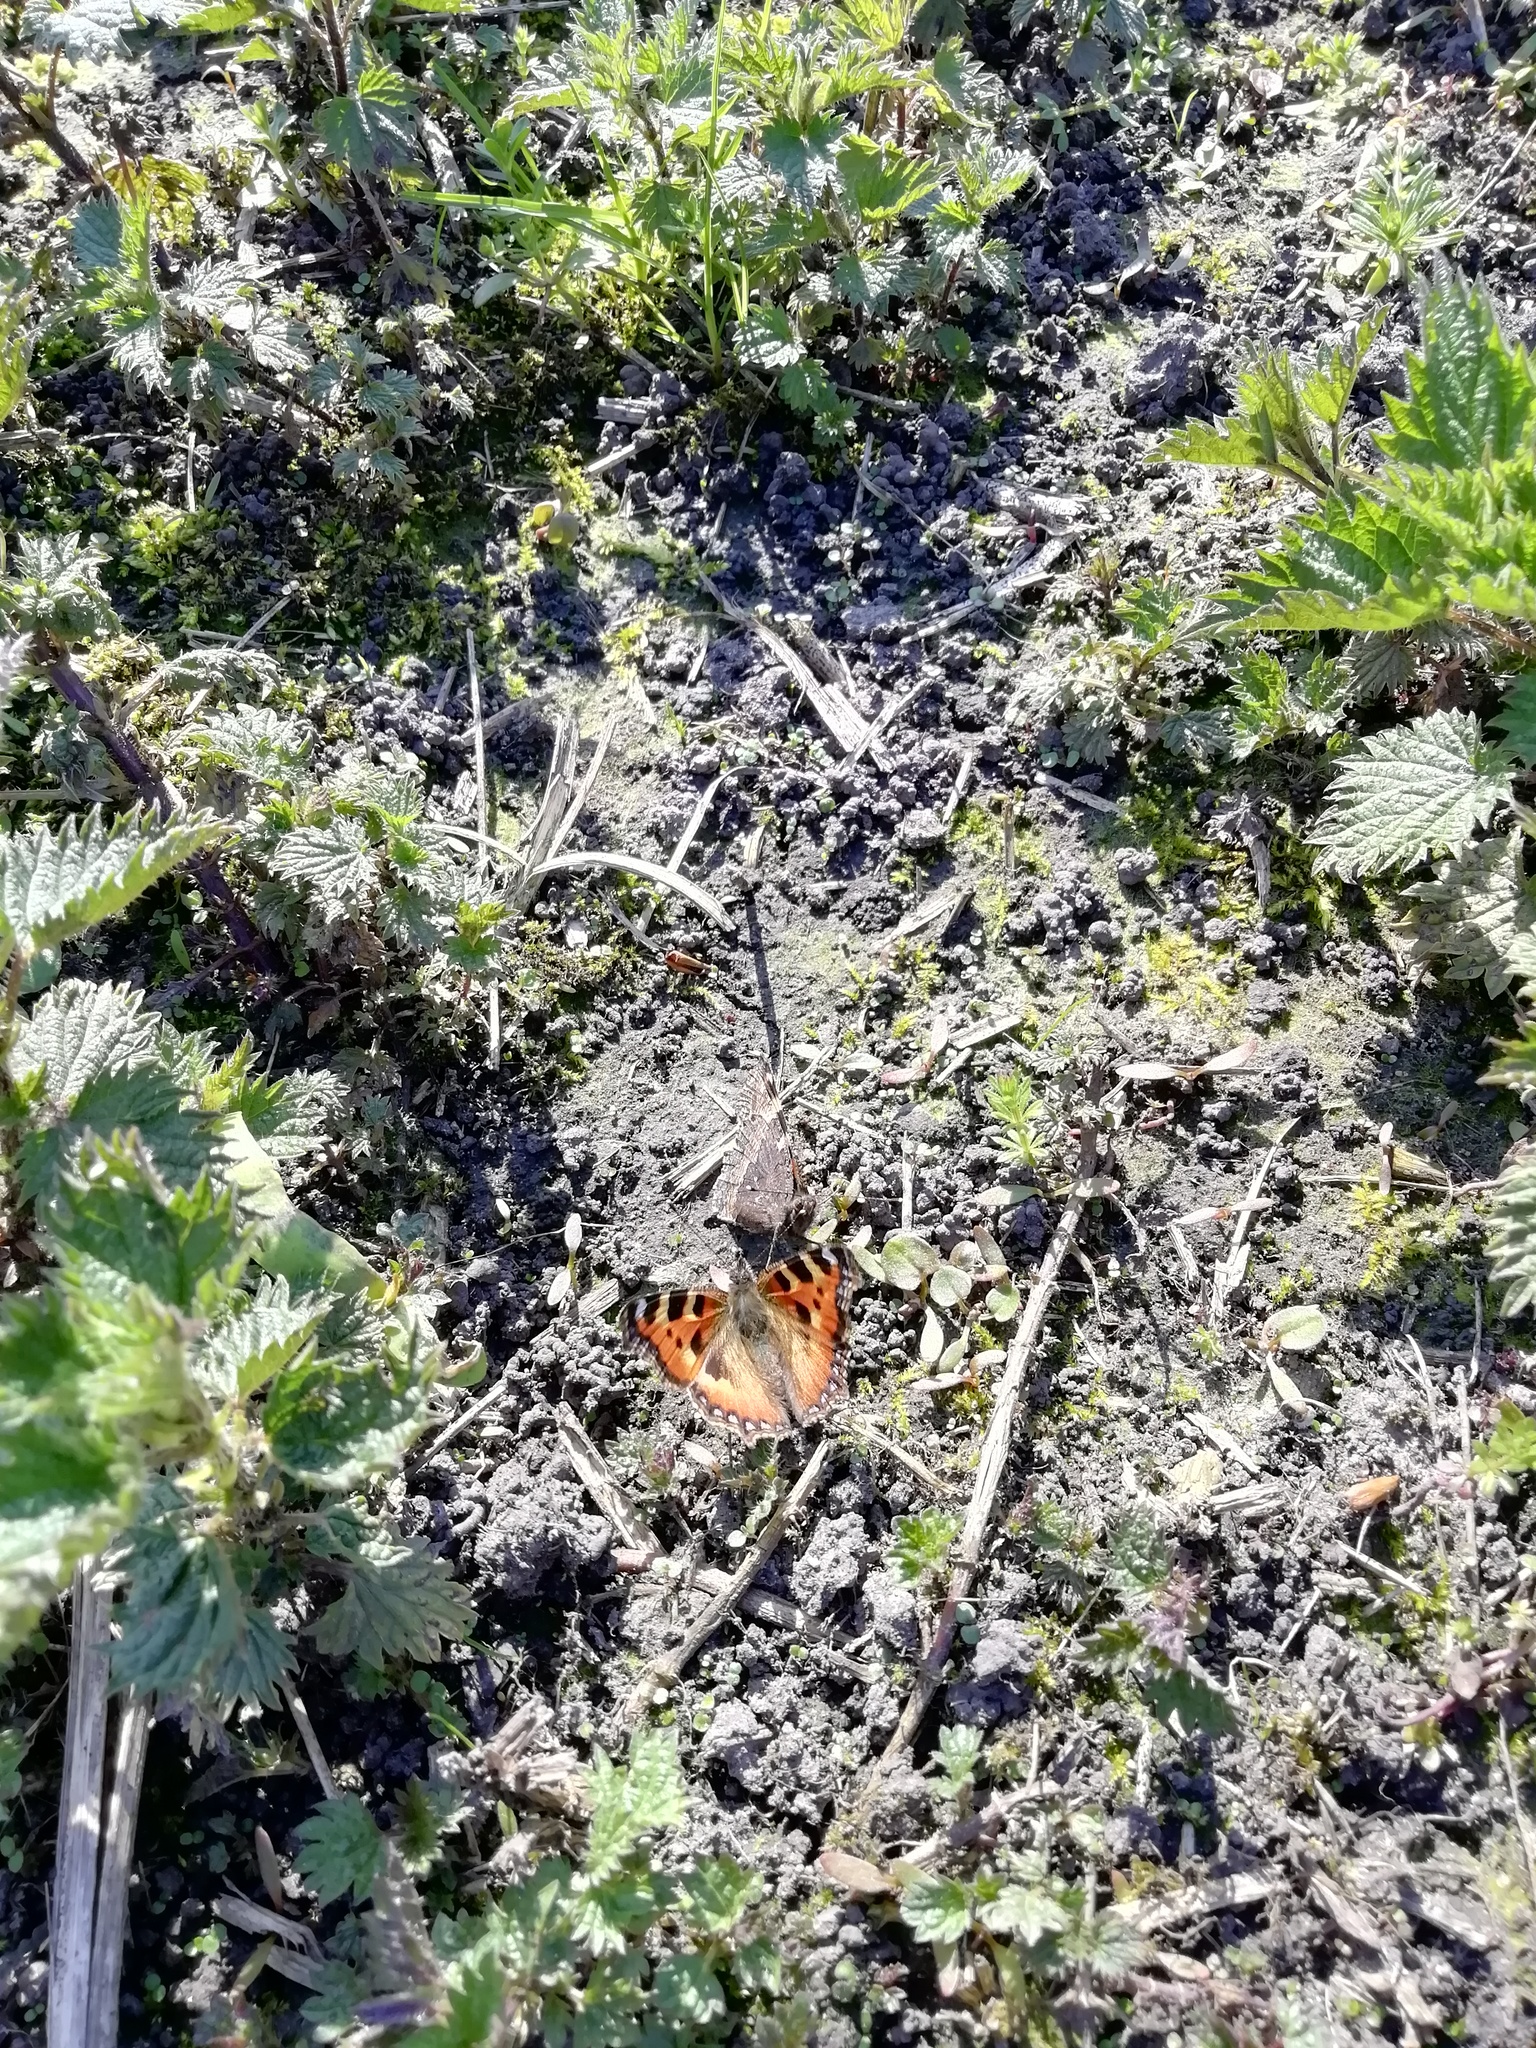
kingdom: Animalia
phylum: Arthropoda
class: Insecta
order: Lepidoptera
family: Nymphalidae
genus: Aglais
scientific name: Aglais urticae
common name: Small tortoiseshell
